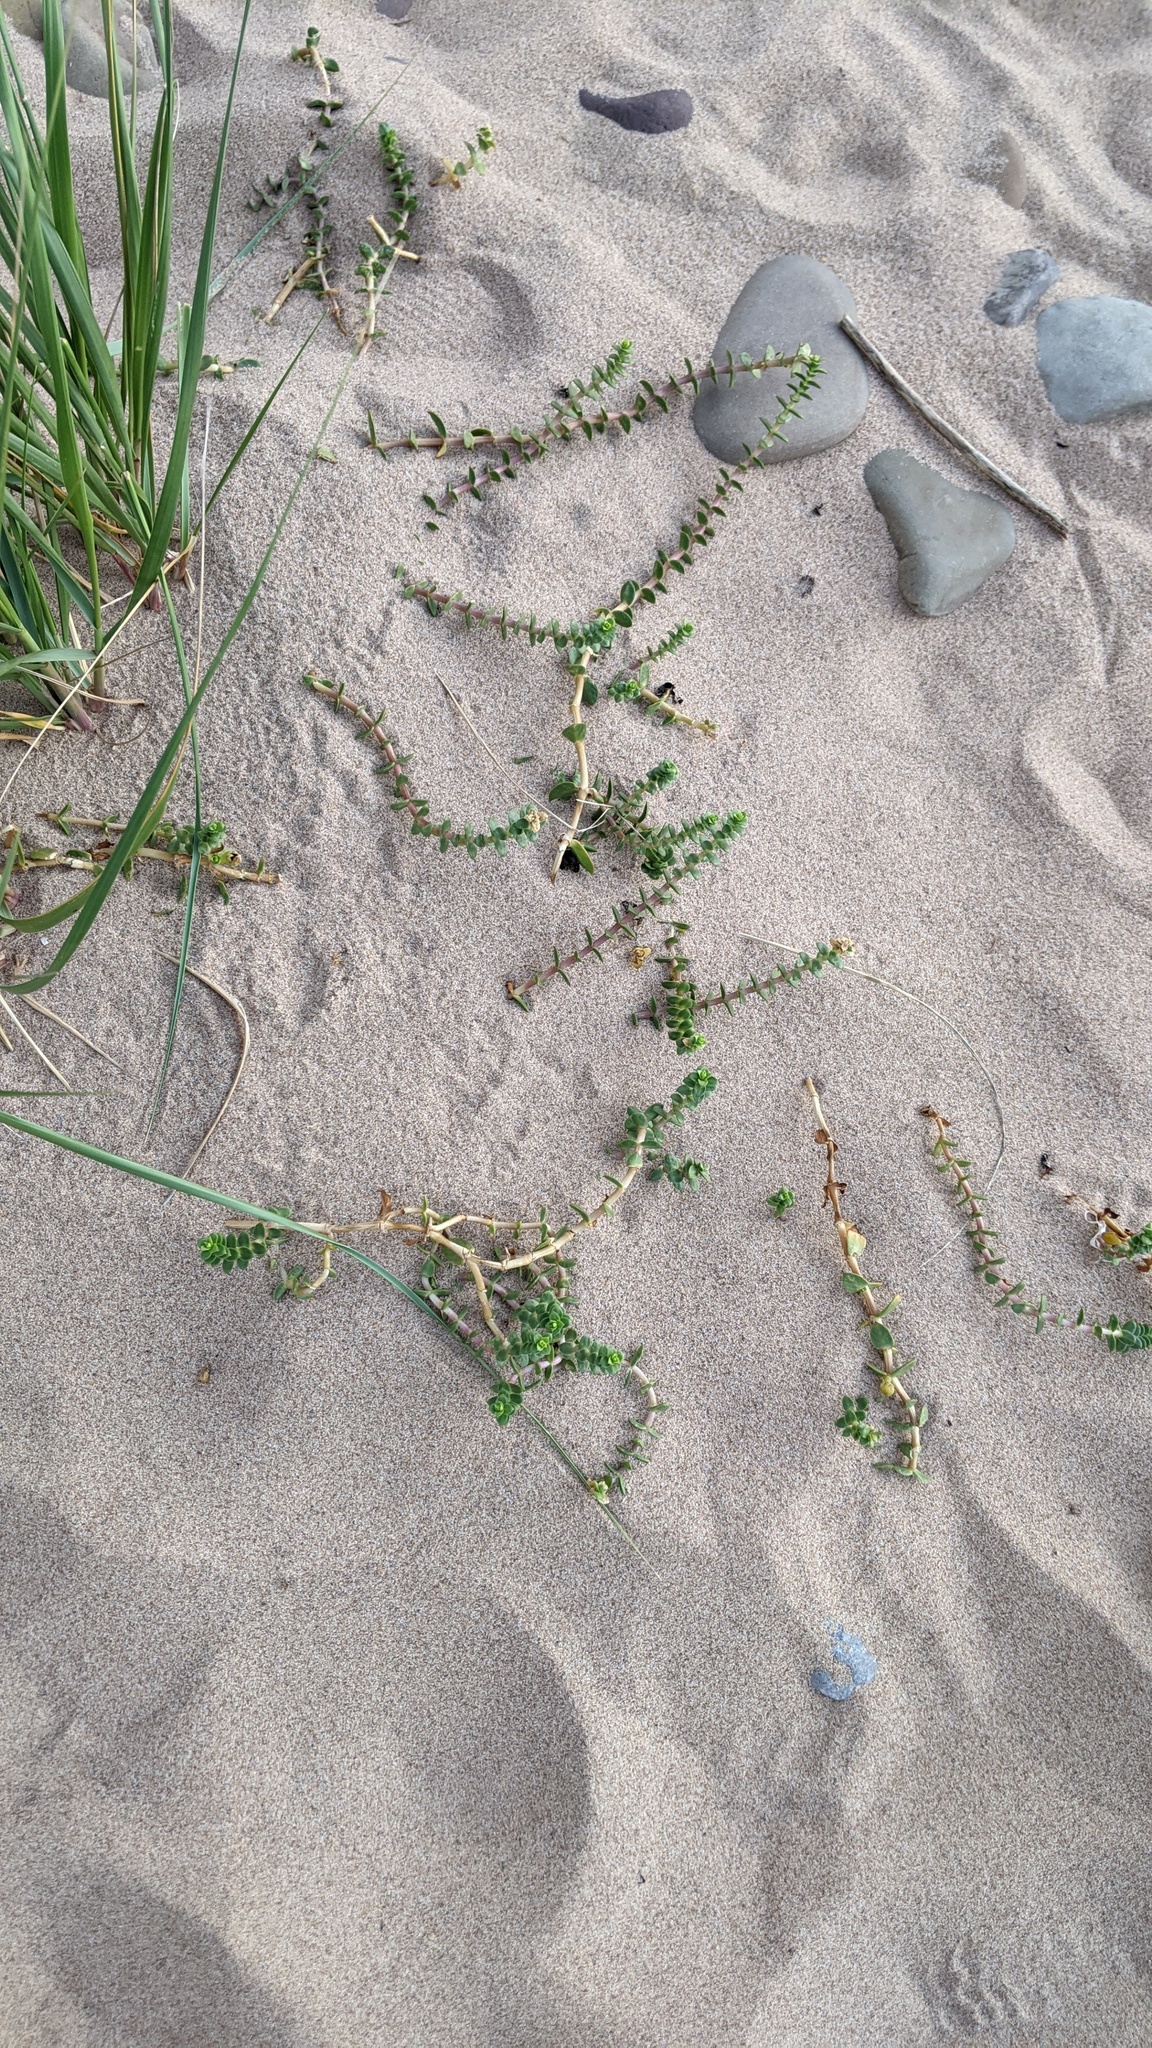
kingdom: Plantae
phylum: Tracheophyta
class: Magnoliopsida
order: Caryophyllales
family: Caryophyllaceae
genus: Honckenya
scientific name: Honckenya peploides
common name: Sea sandwort
